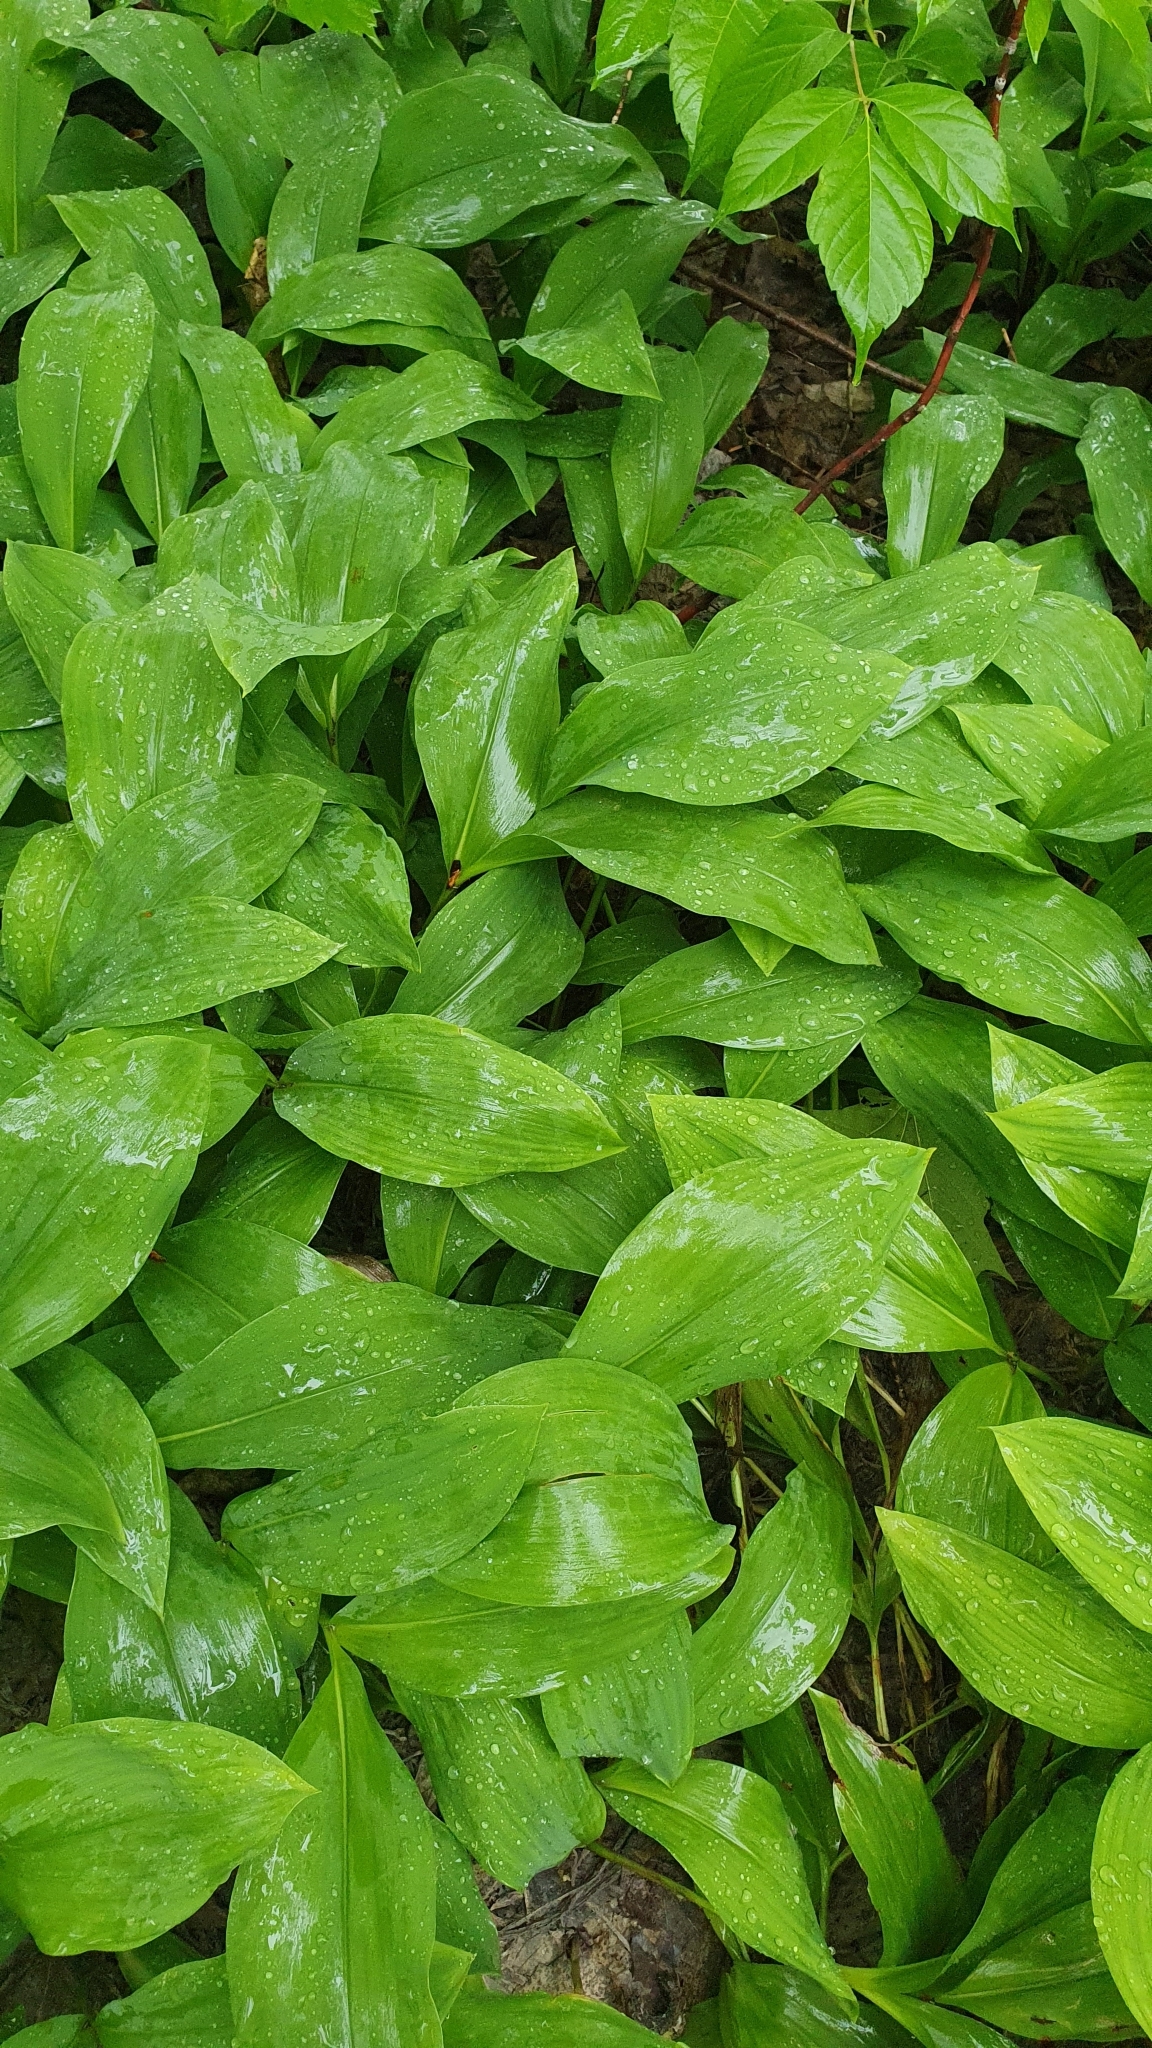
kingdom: Plantae
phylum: Tracheophyta
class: Liliopsida
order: Asparagales
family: Asparagaceae
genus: Convallaria
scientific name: Convallaria majalis
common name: Lily-of-the-valley
